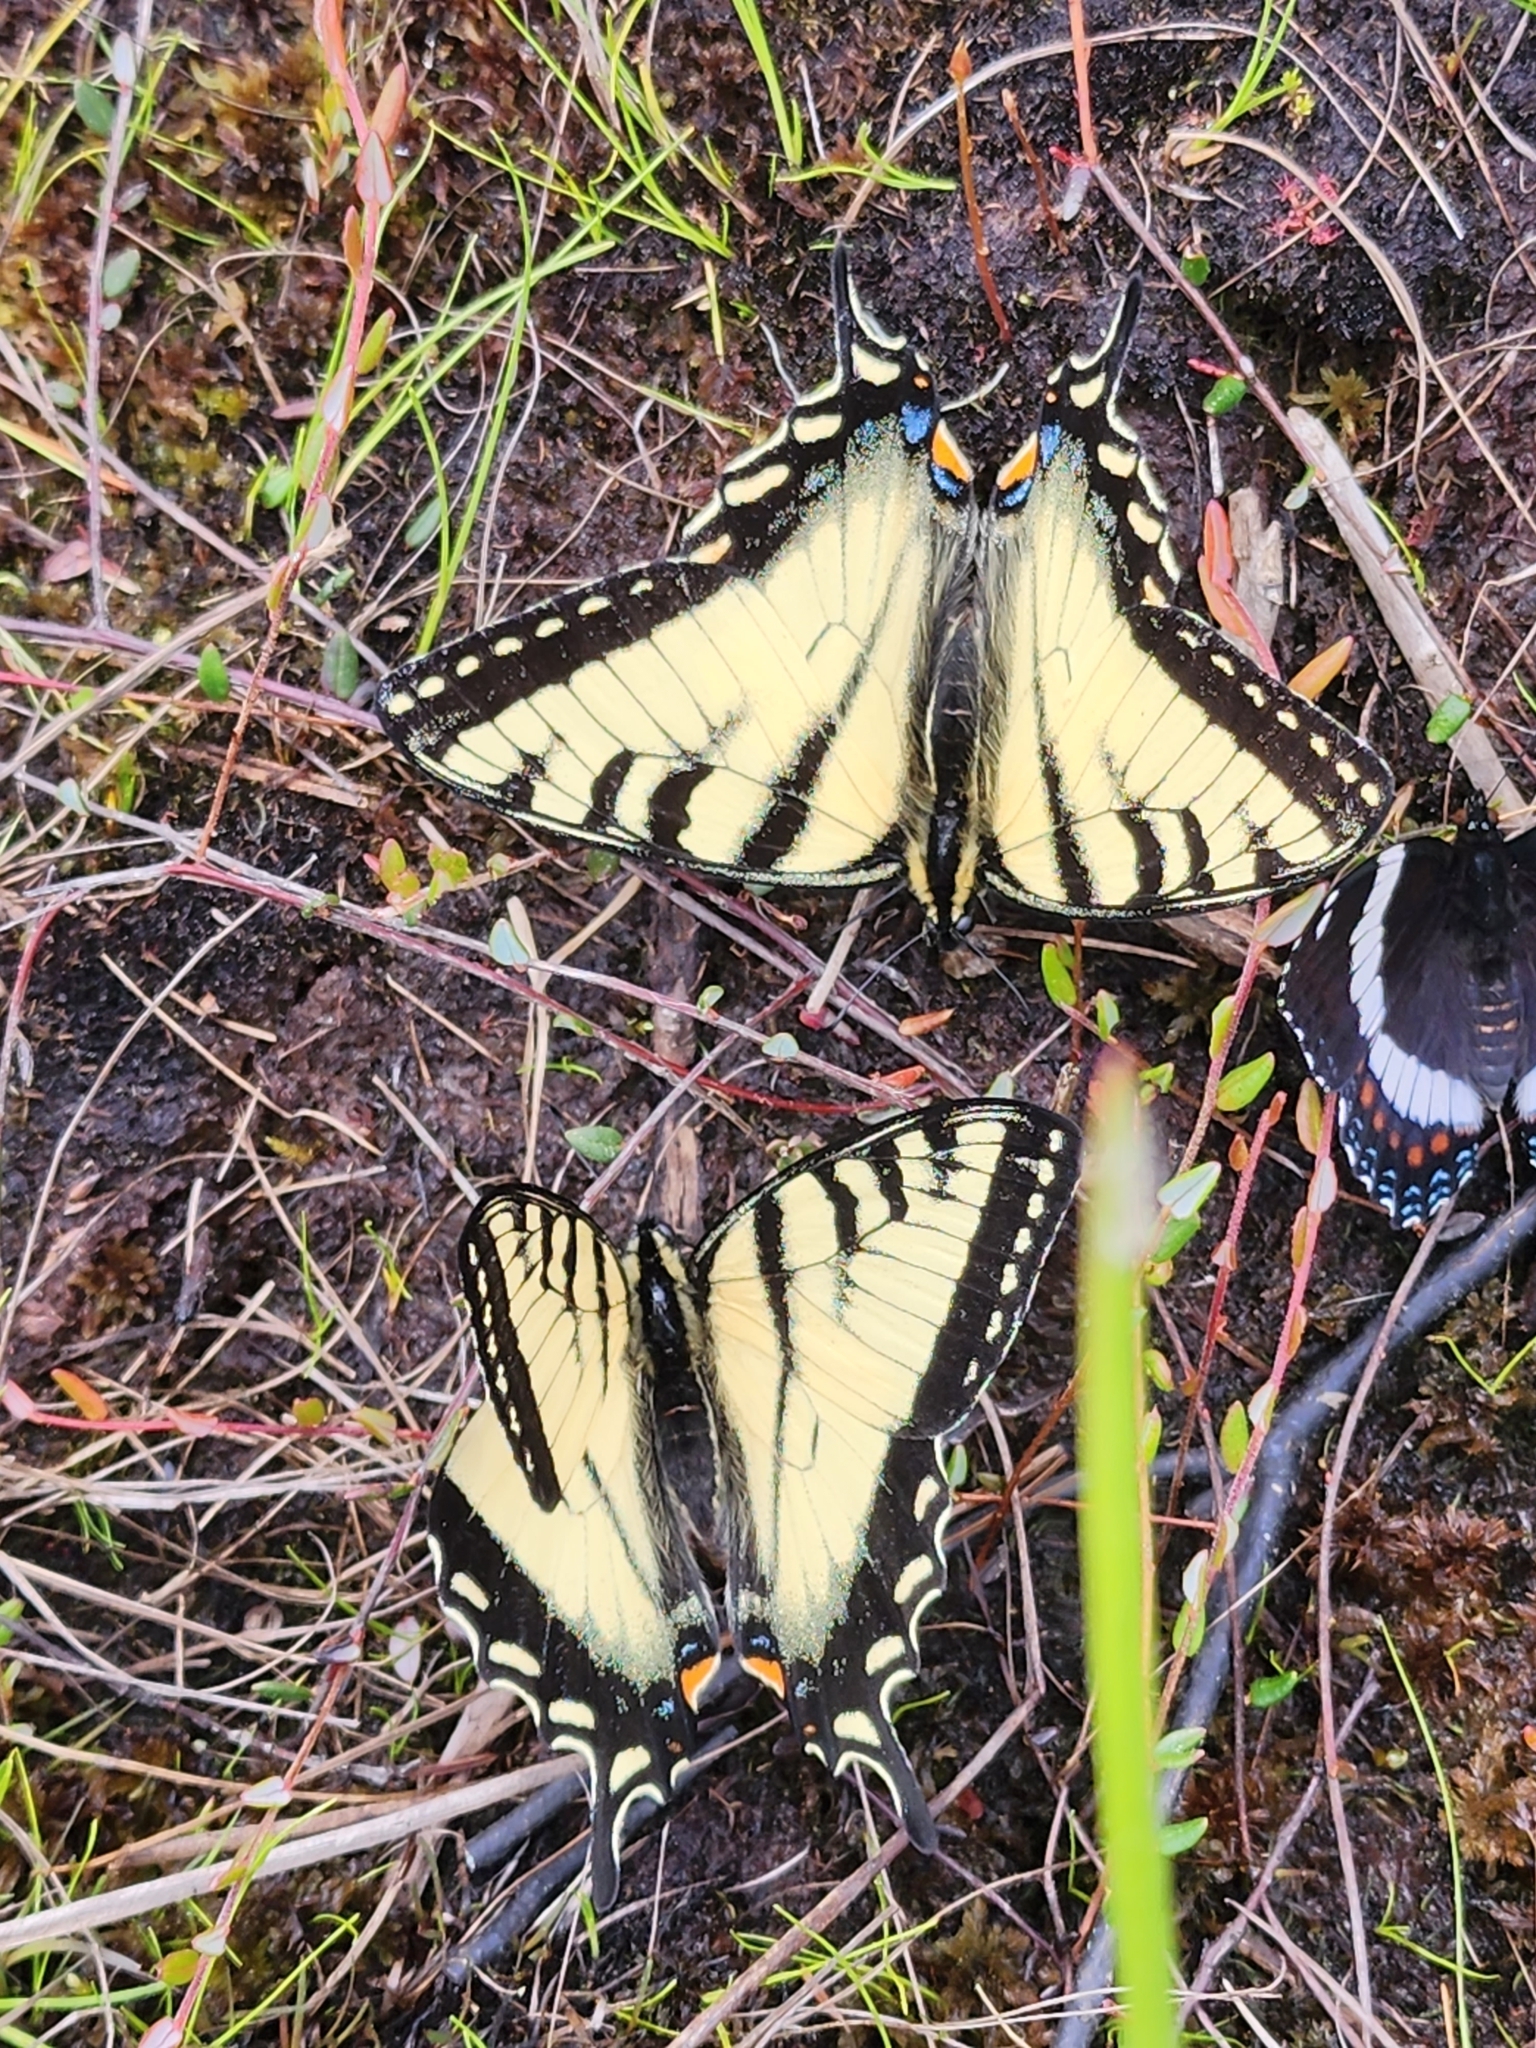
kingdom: Animalia
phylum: Arthropoda
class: Insecta
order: Lepidoptera
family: Papilionidae
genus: Papilio
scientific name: Papilio canadensis
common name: Canadian tiger swallowtail
